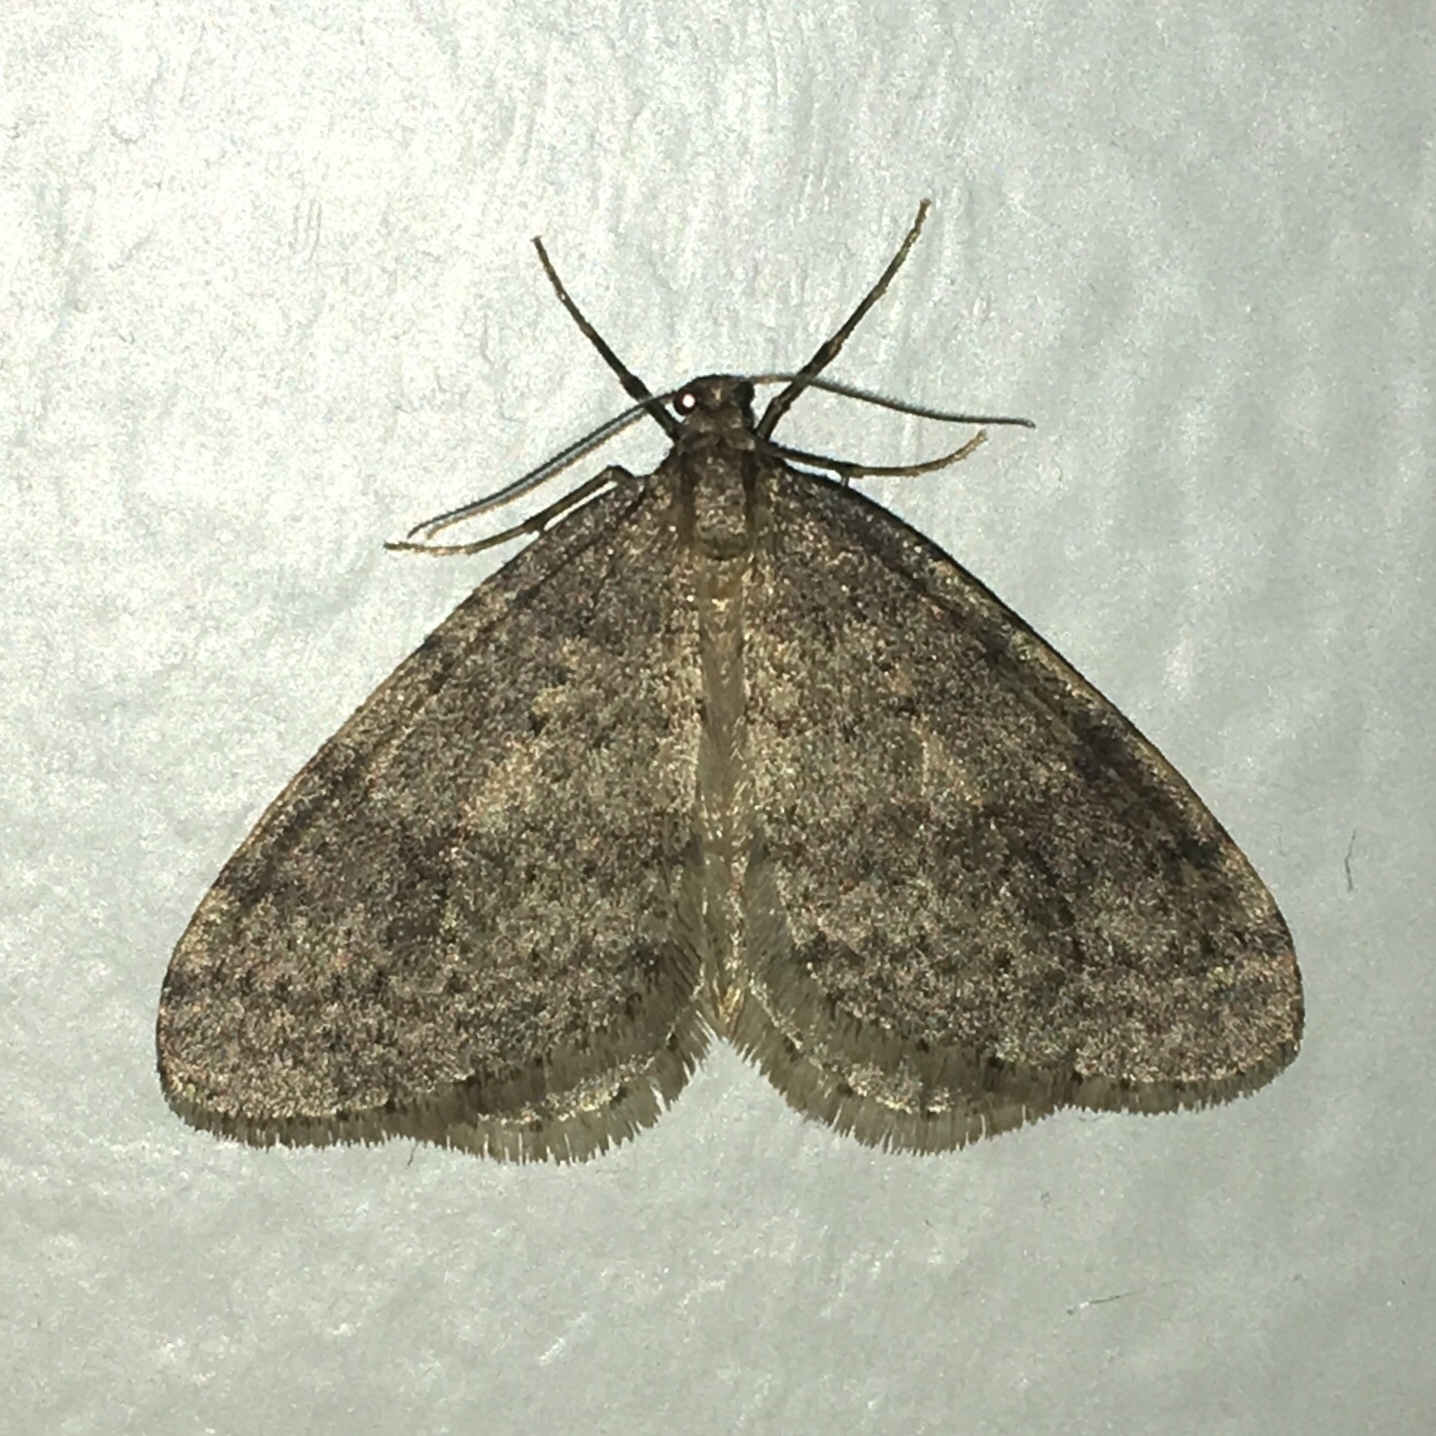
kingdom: Animalia
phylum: Arthropoda
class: Insecta
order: Lepidoptera
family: Geometridae
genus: Operophtera
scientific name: Operophtera bruceata
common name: Bruce spanworm
